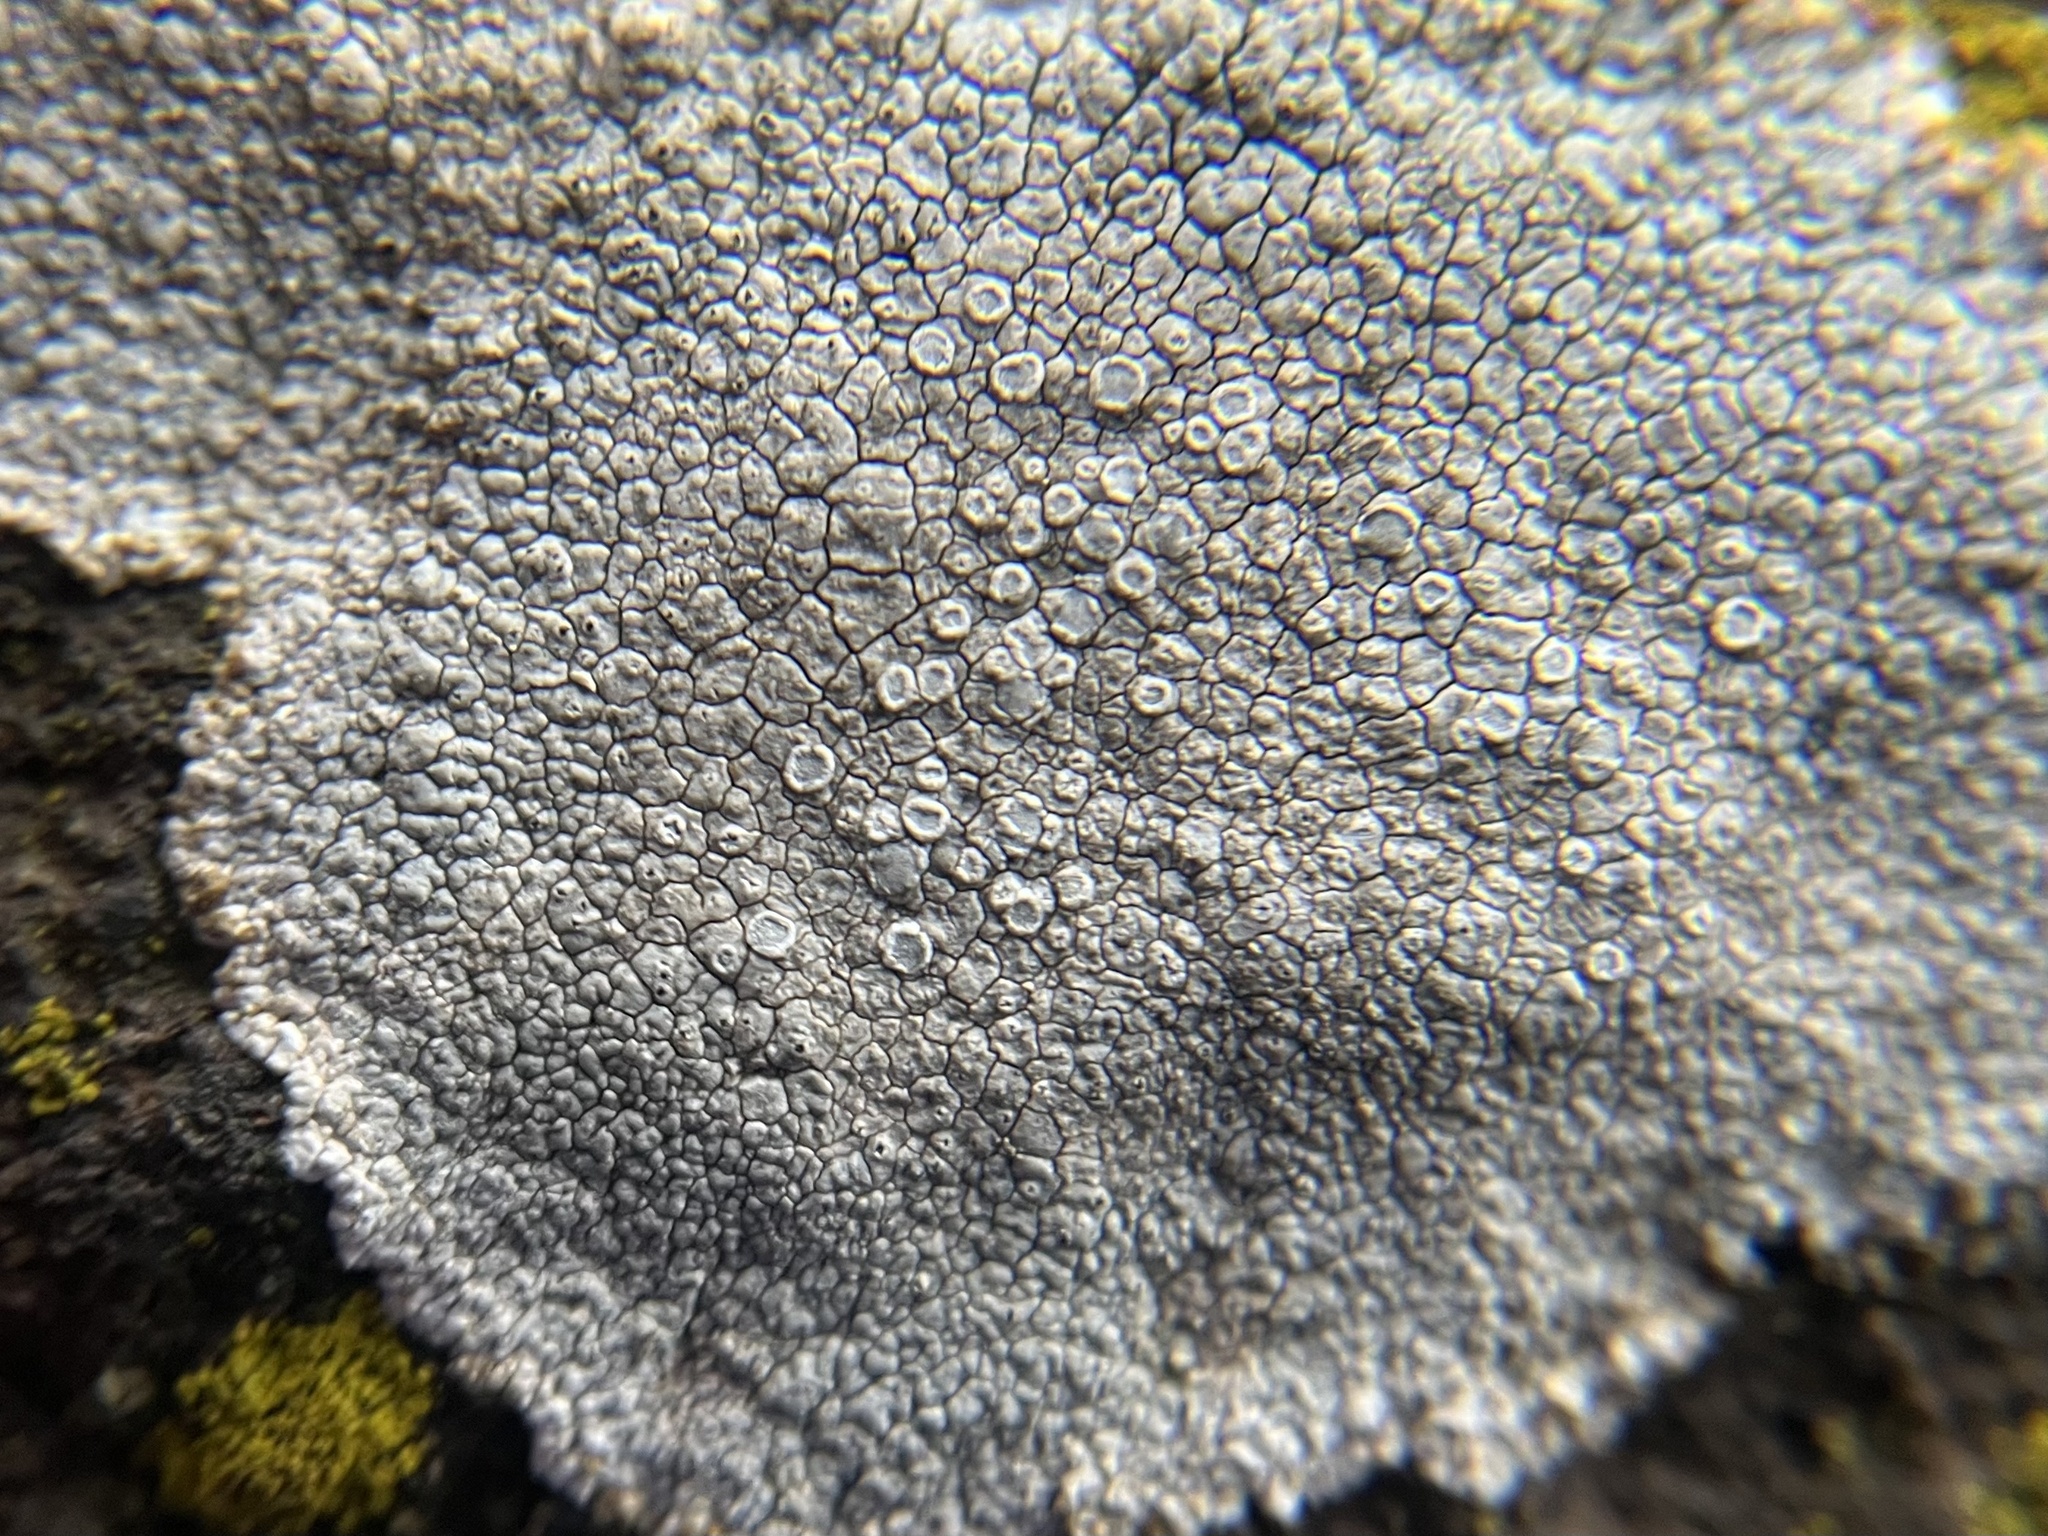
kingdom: Fungi
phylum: Ascomycota
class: Lecanoromycetes
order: Lecanorales
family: Lecanoraceae
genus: Glaucomaria
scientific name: Glaucomaria rupicola
